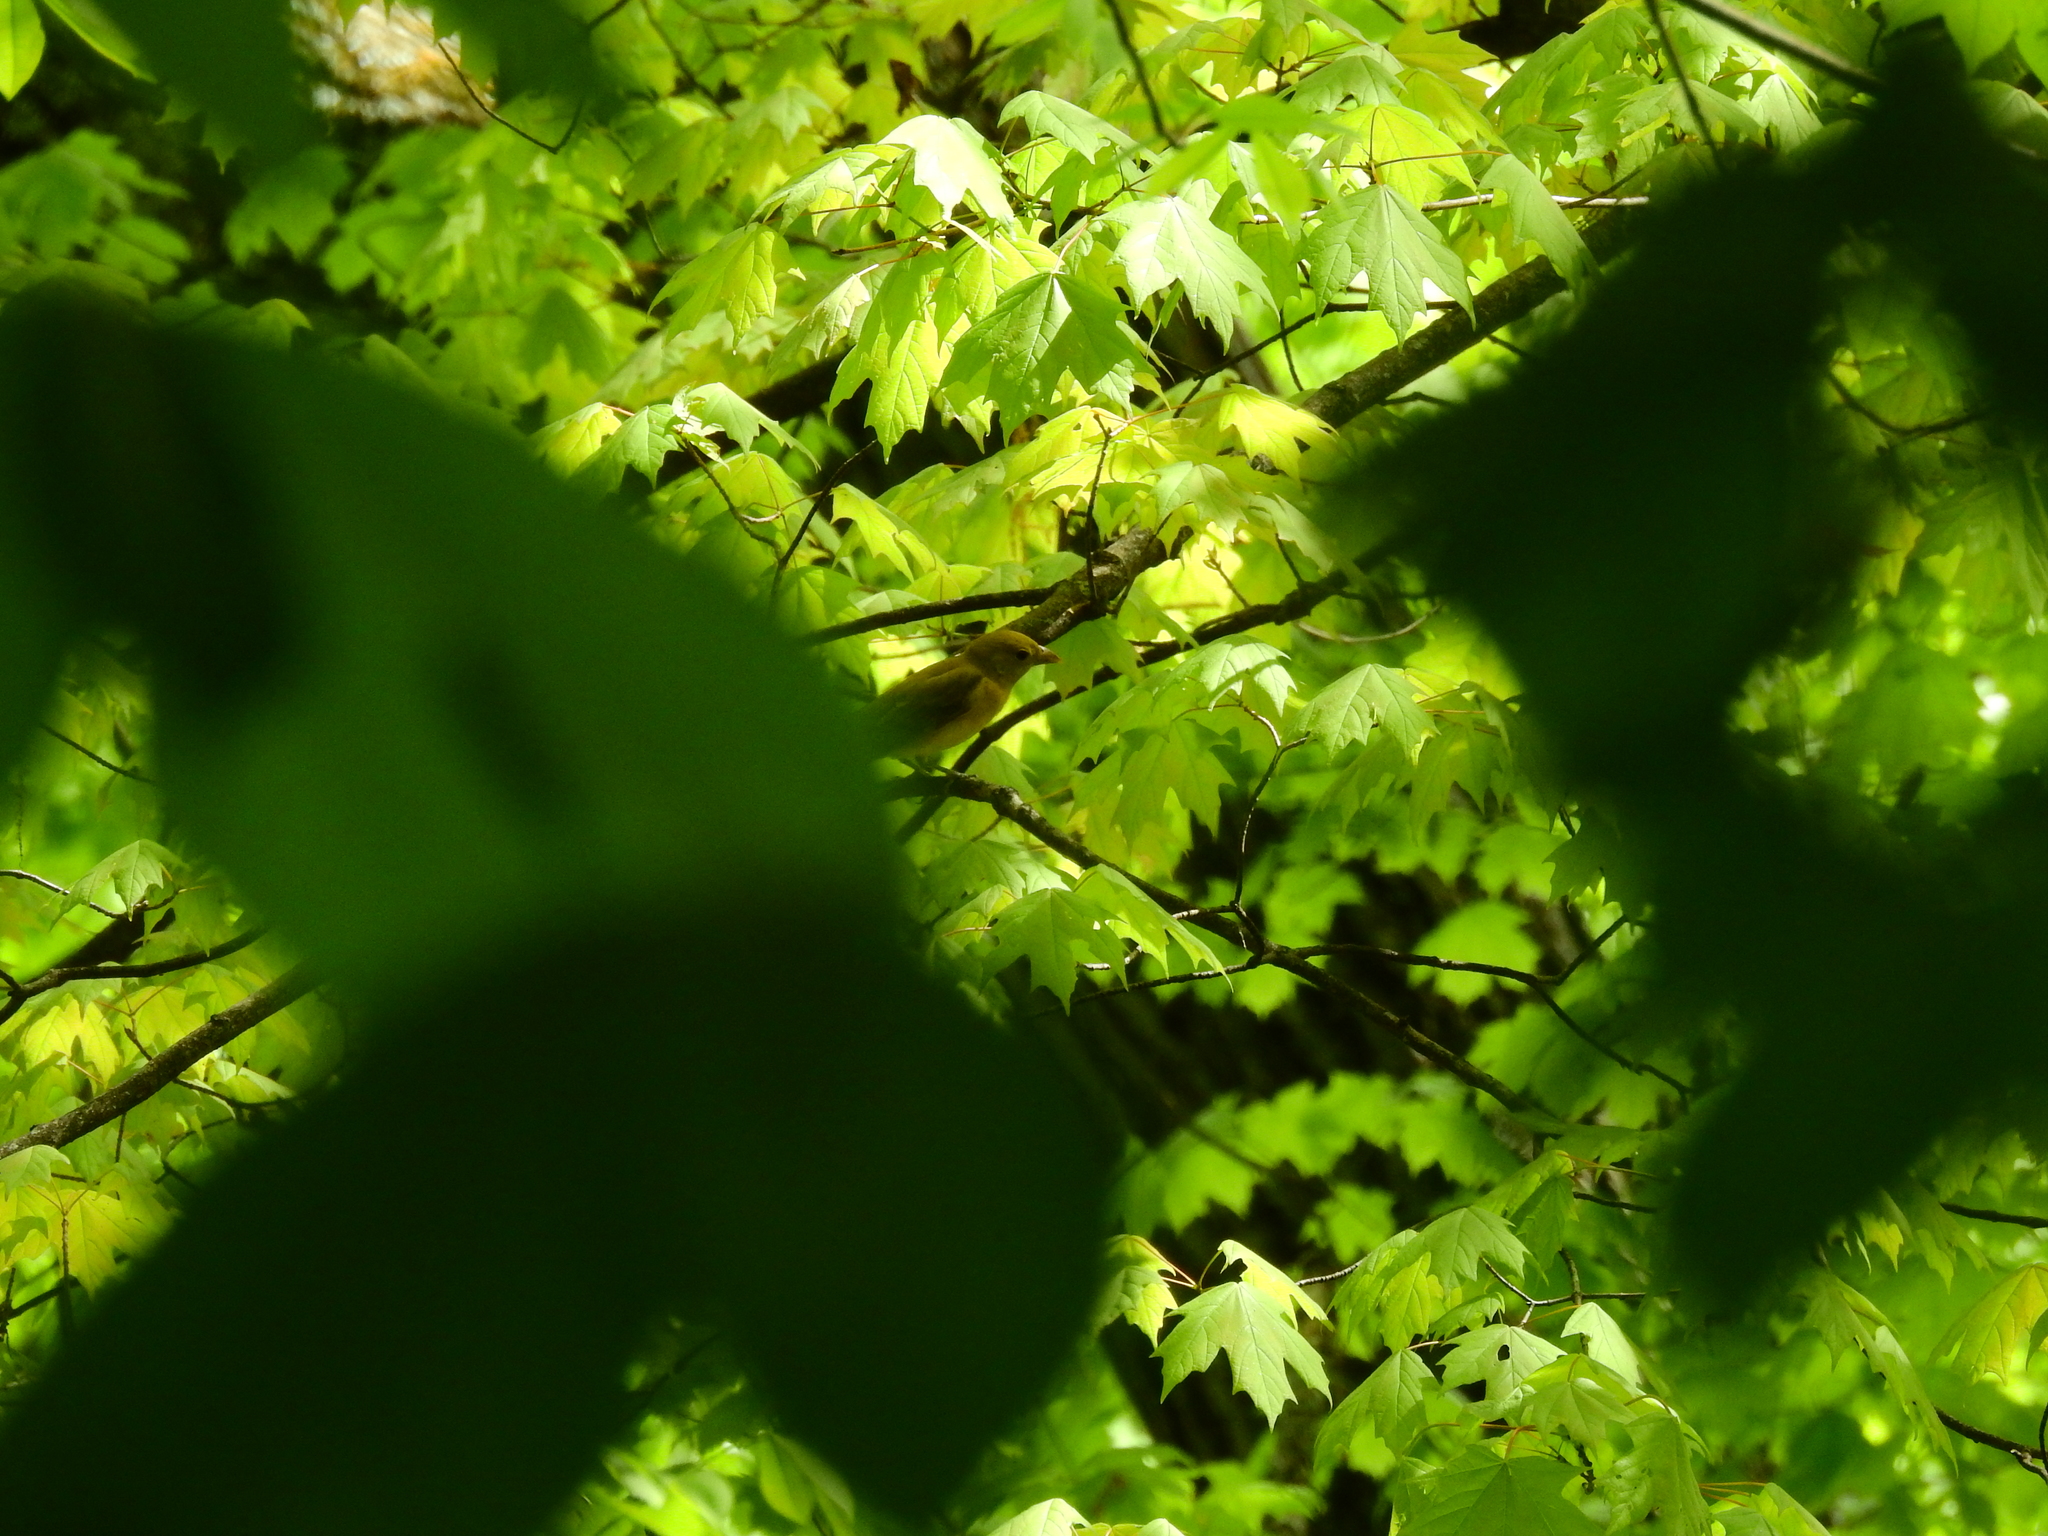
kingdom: Animalia
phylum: Chordata
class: Aves
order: Passeriformes
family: Cardinalidae
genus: Piranga
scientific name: Piranga olivacea
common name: Scarlet tanager
